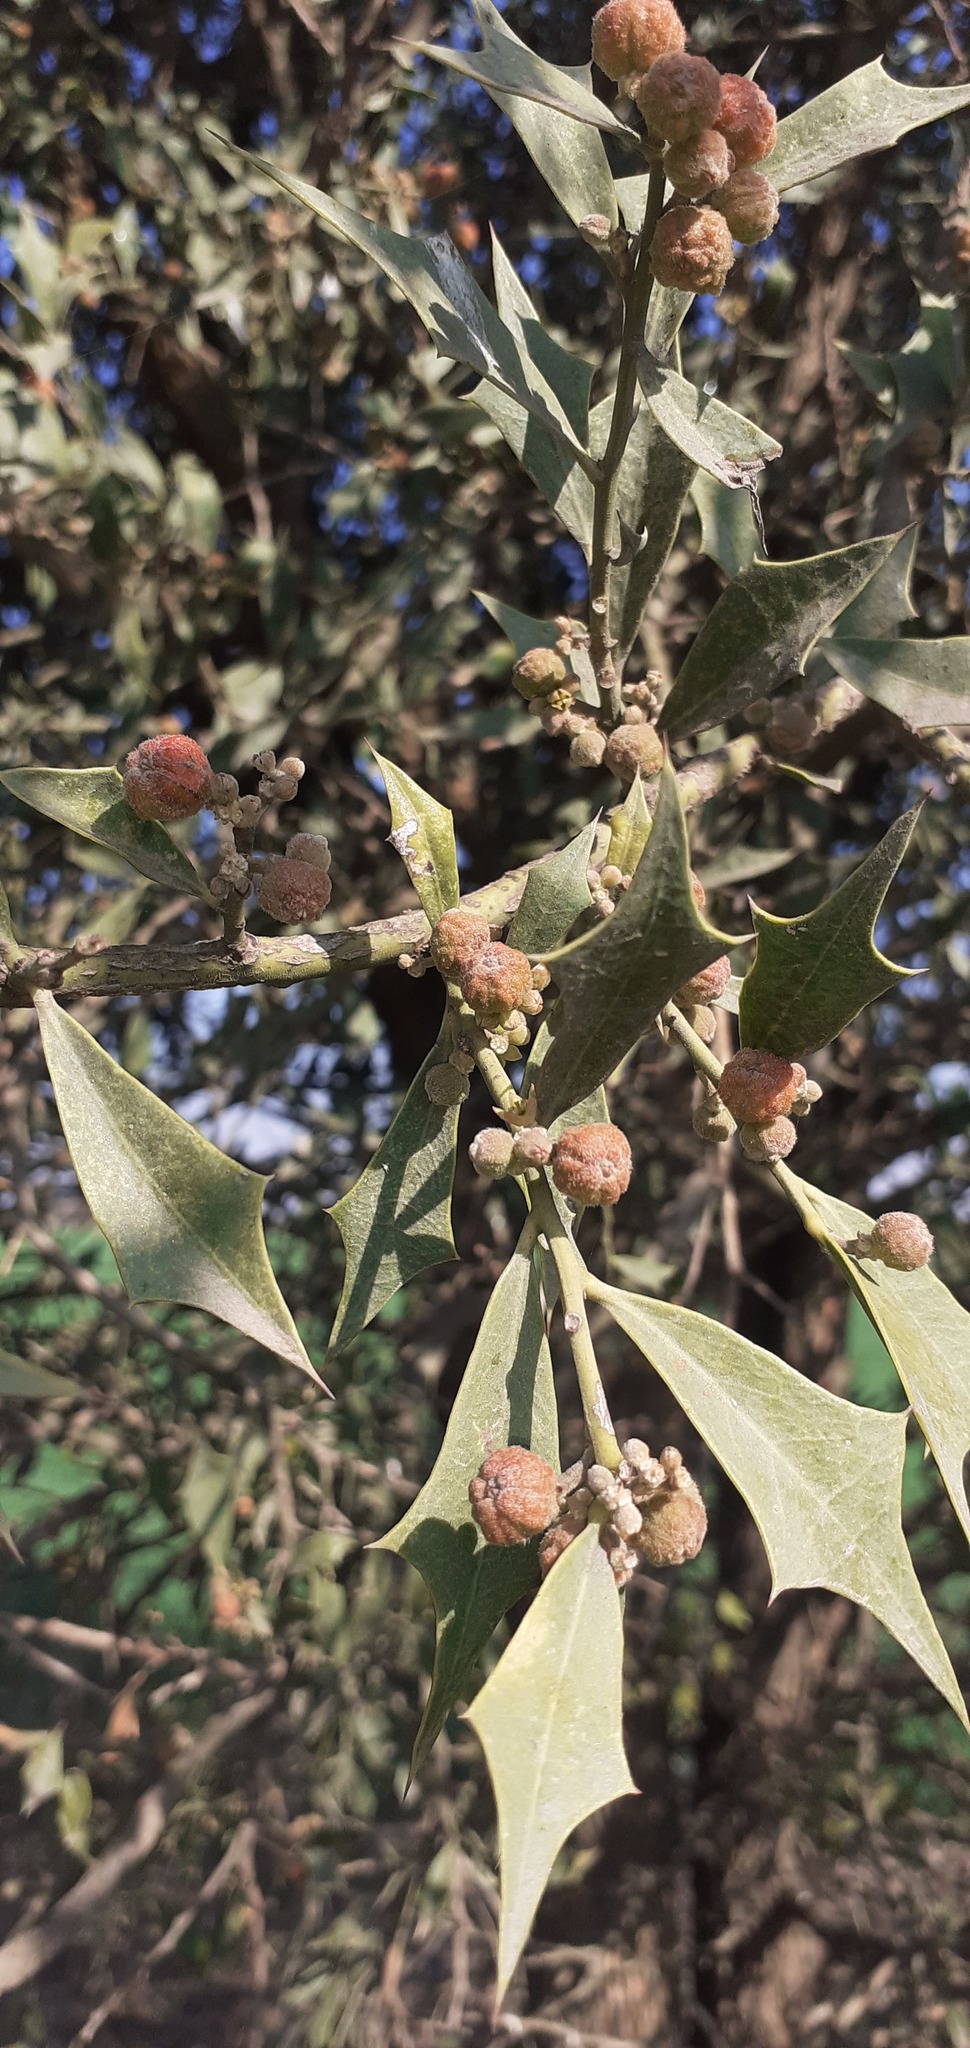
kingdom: Plantae
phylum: Tracheophyta
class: Magnoliopsida
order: Santalales
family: Cervantesiaceae
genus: Jodina
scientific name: Jodina rhombifolia
